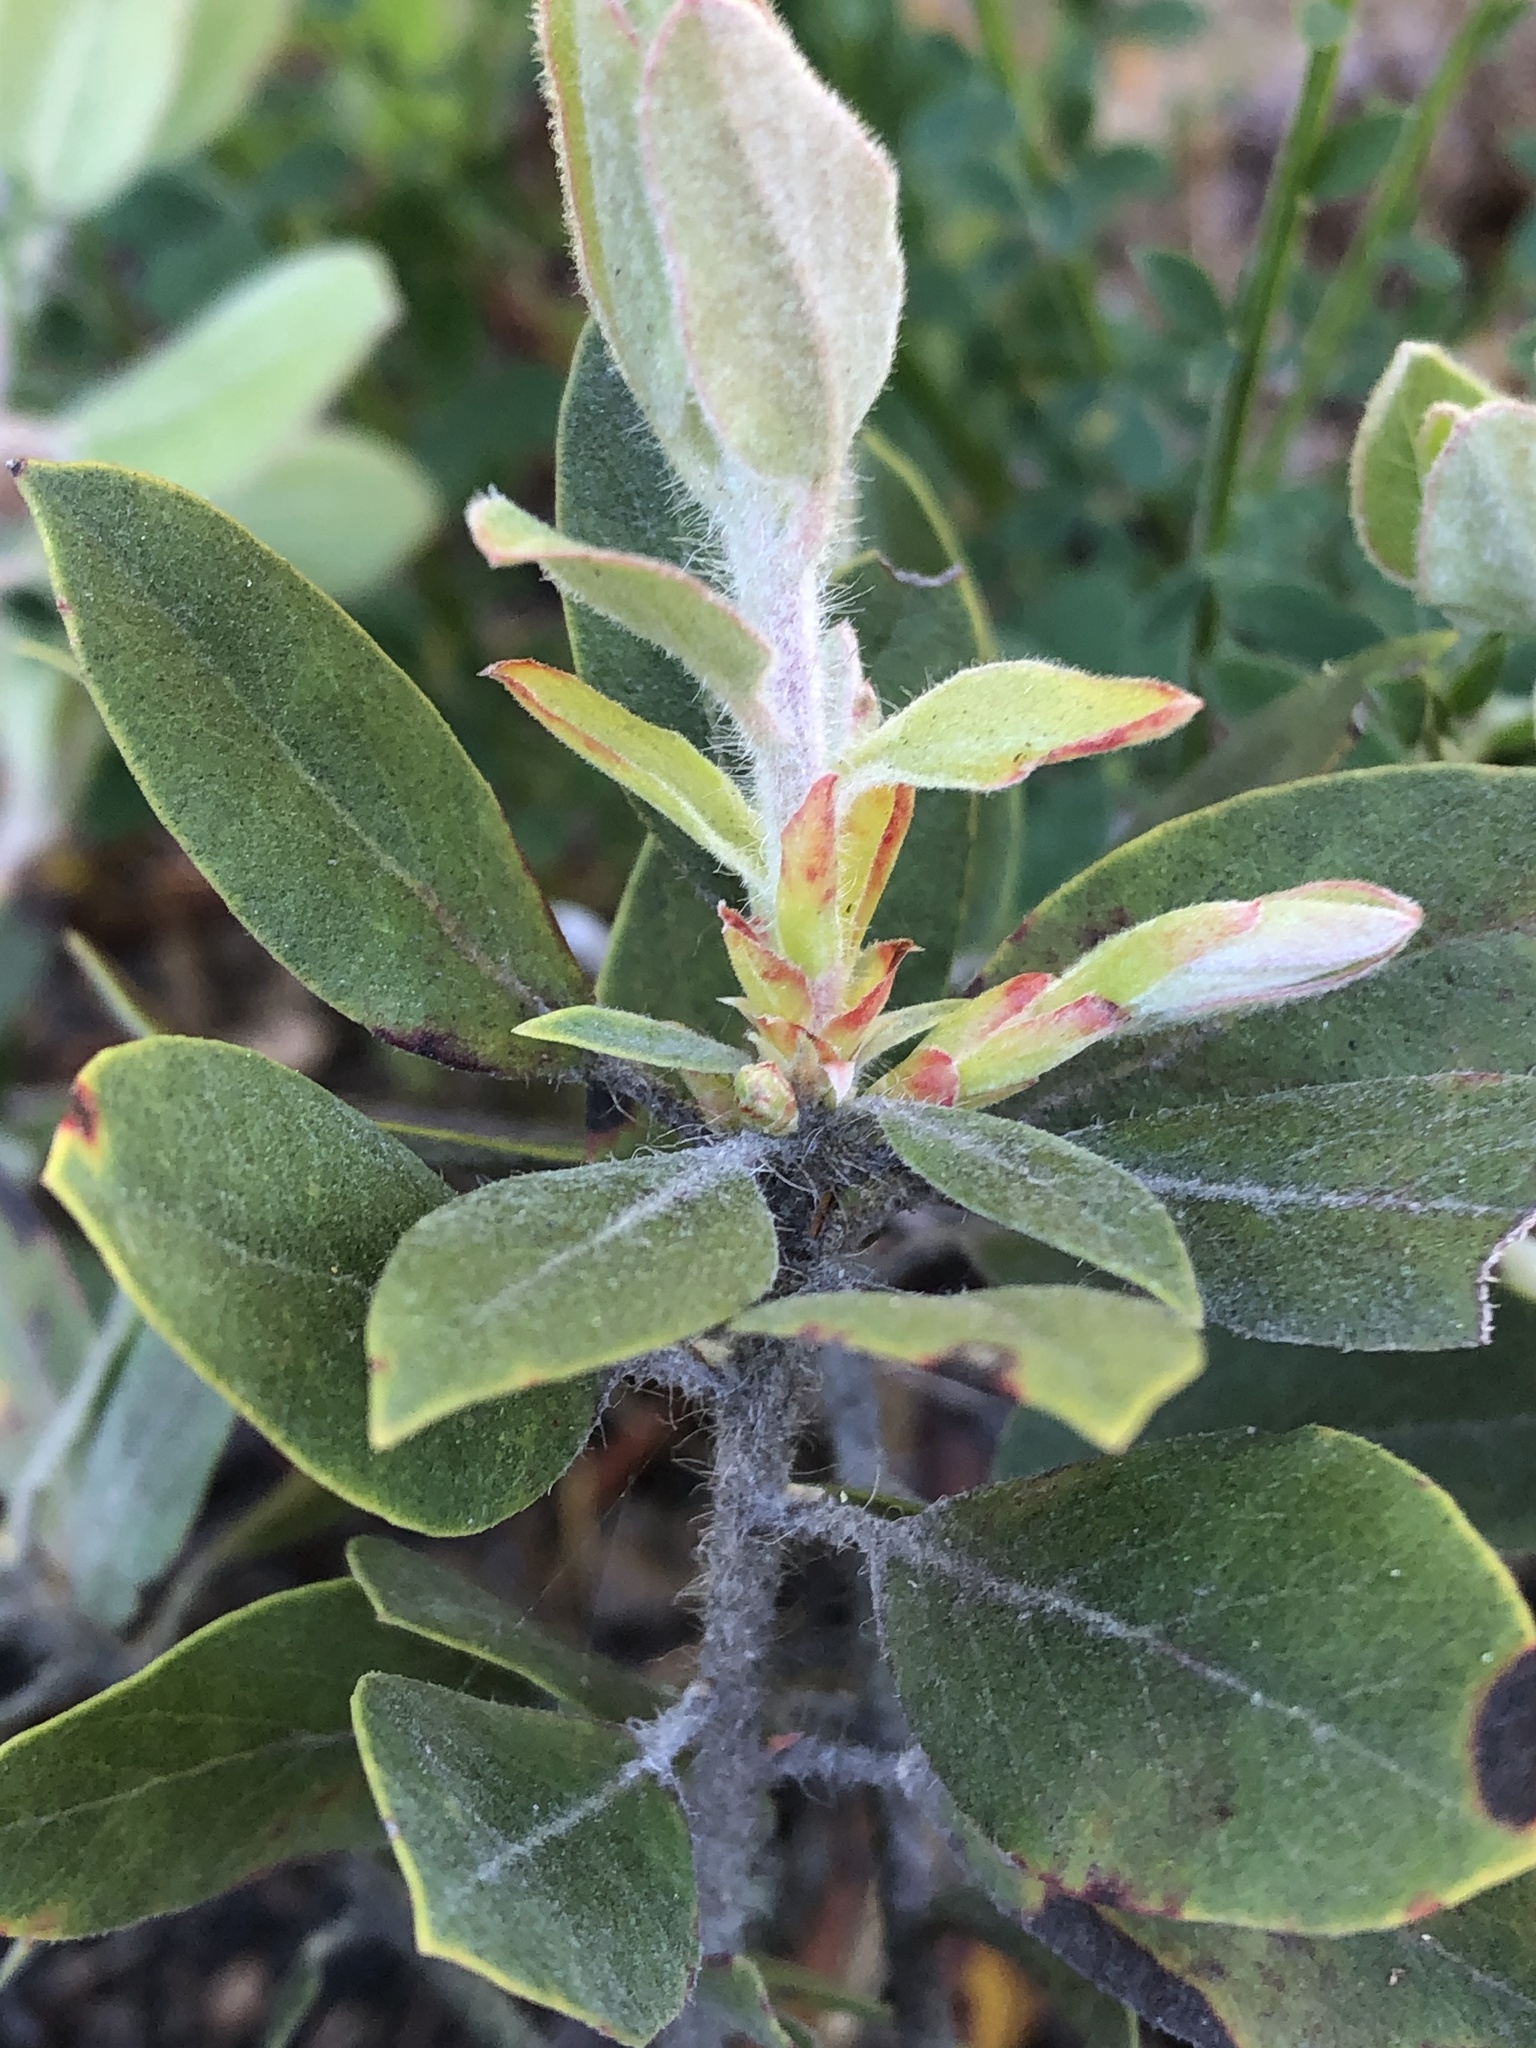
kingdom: Plantae
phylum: Tracheophyta
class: Magnoliopsida
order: Ericales
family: Ericaceae
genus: Arctostaphylos
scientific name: Arctostaphylos columbiana
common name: Bristly bearberry
